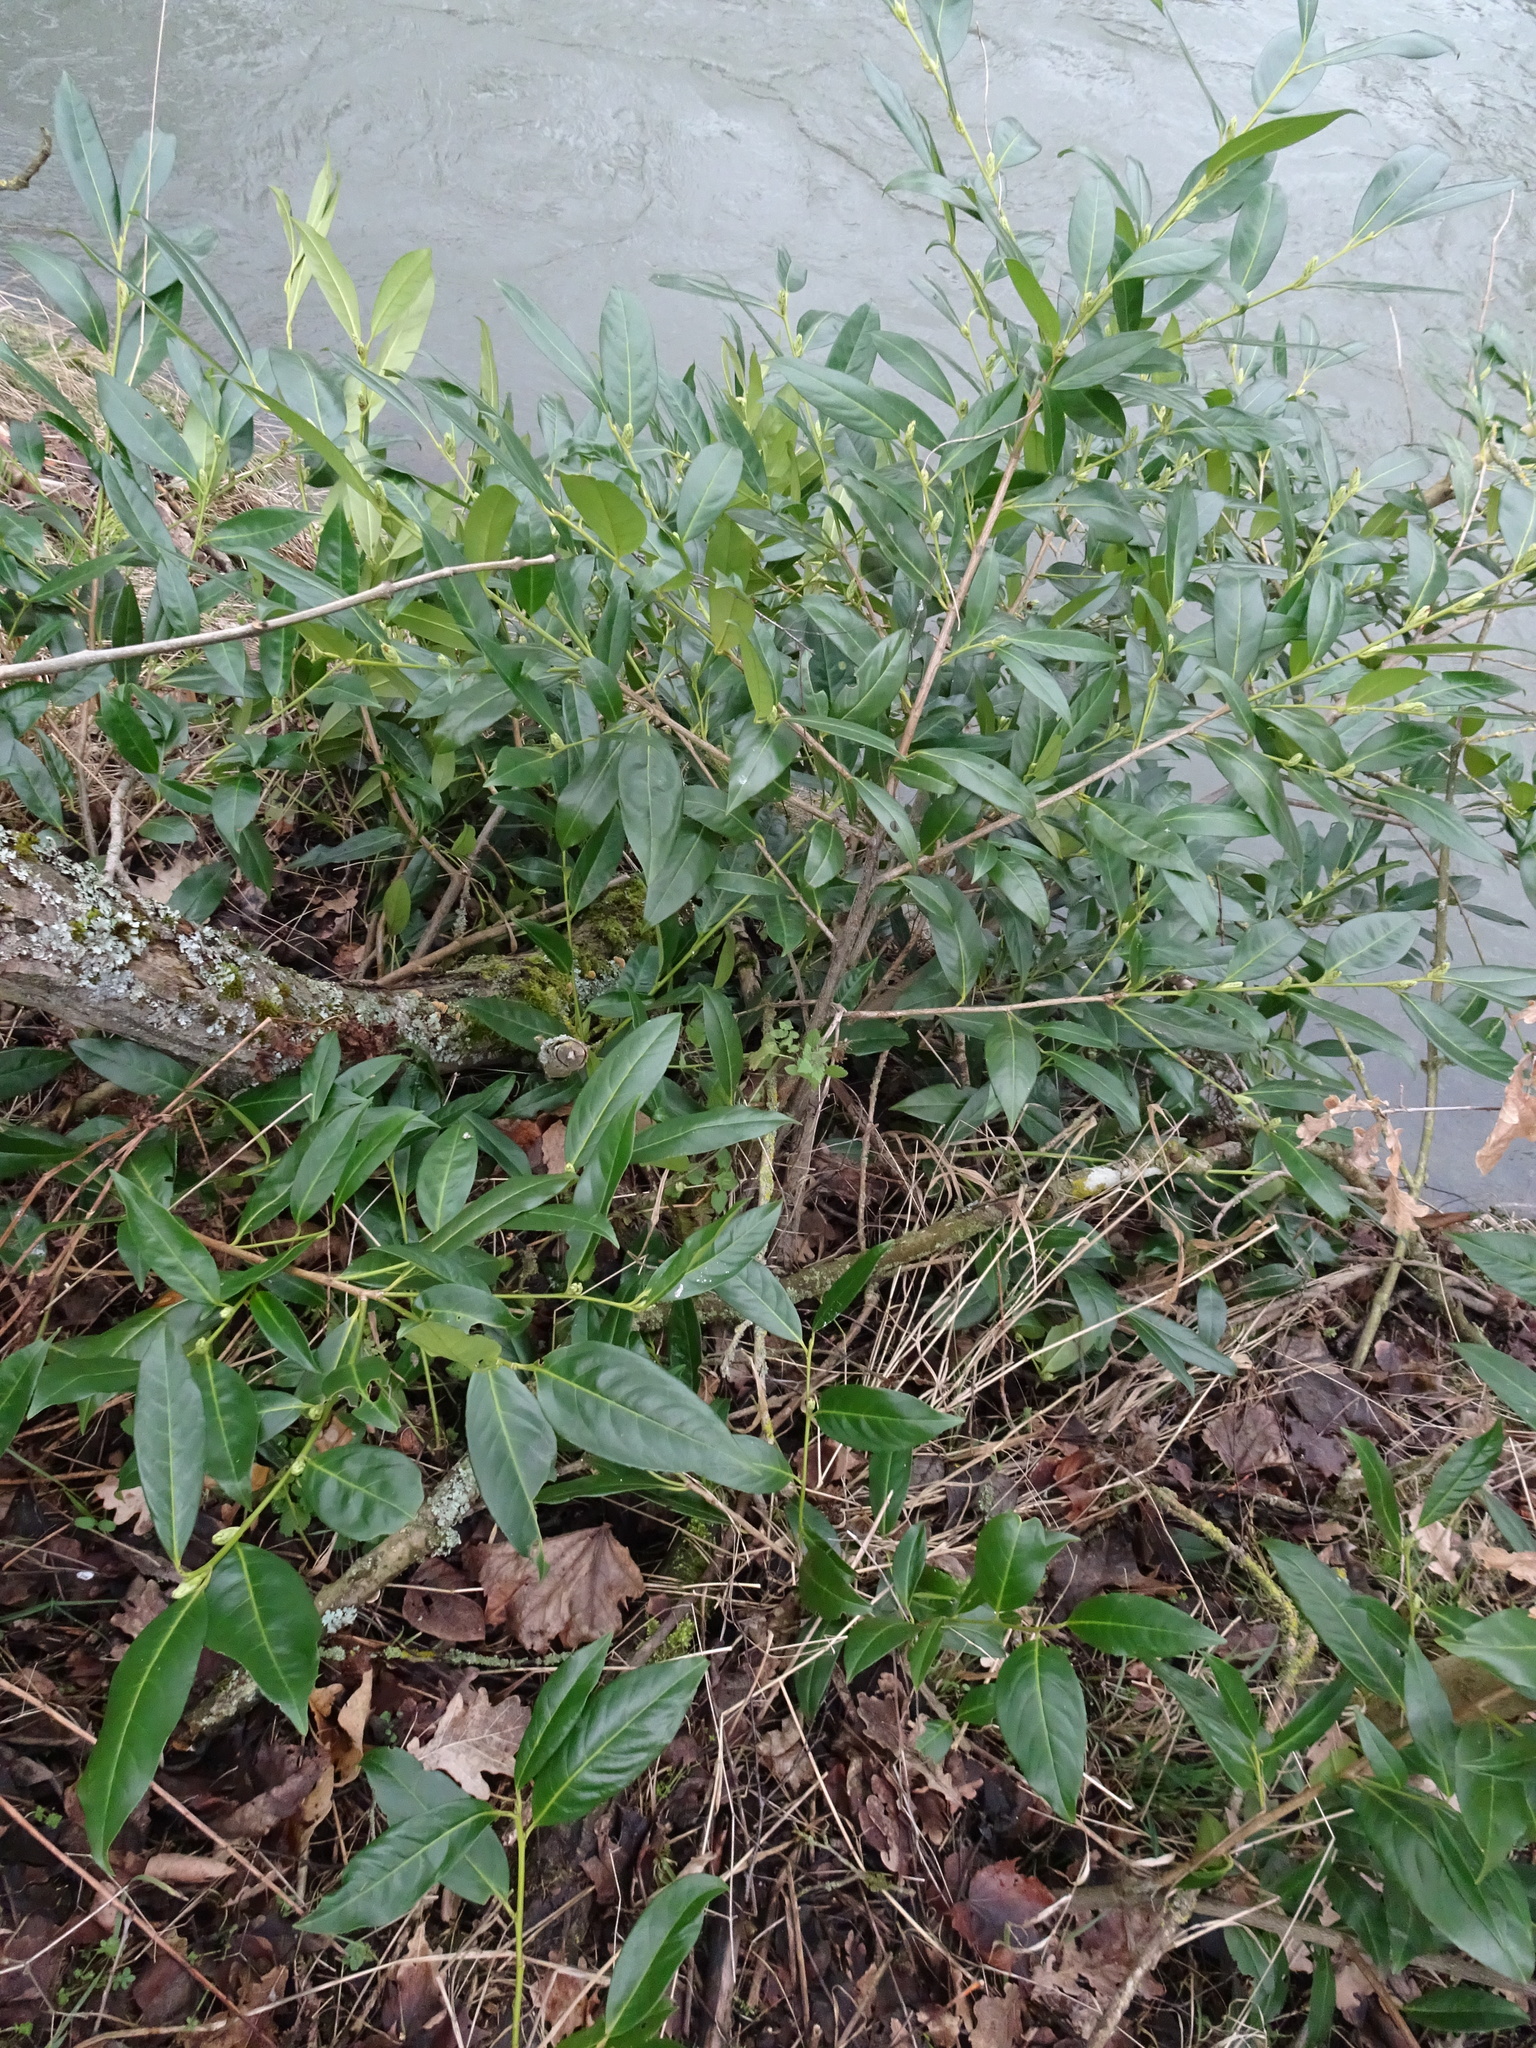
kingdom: Plantae
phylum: Tracheophyta
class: Magnoliopsida
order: Rosales
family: Rosaceae
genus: Prunus
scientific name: Prunus laurocerasus
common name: Cherry laurel
